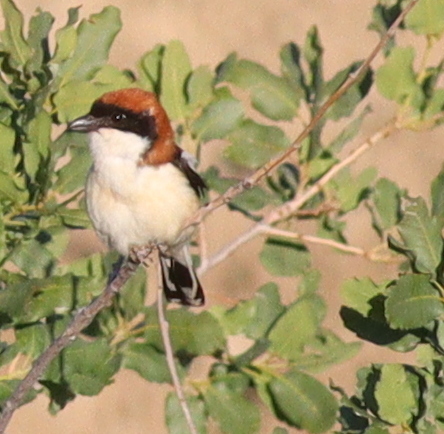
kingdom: Animalia
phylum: Chordata
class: Aves
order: Passeriformes
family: Laniidae
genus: Lanius
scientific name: Lanius senator
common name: Woodchat shrike
